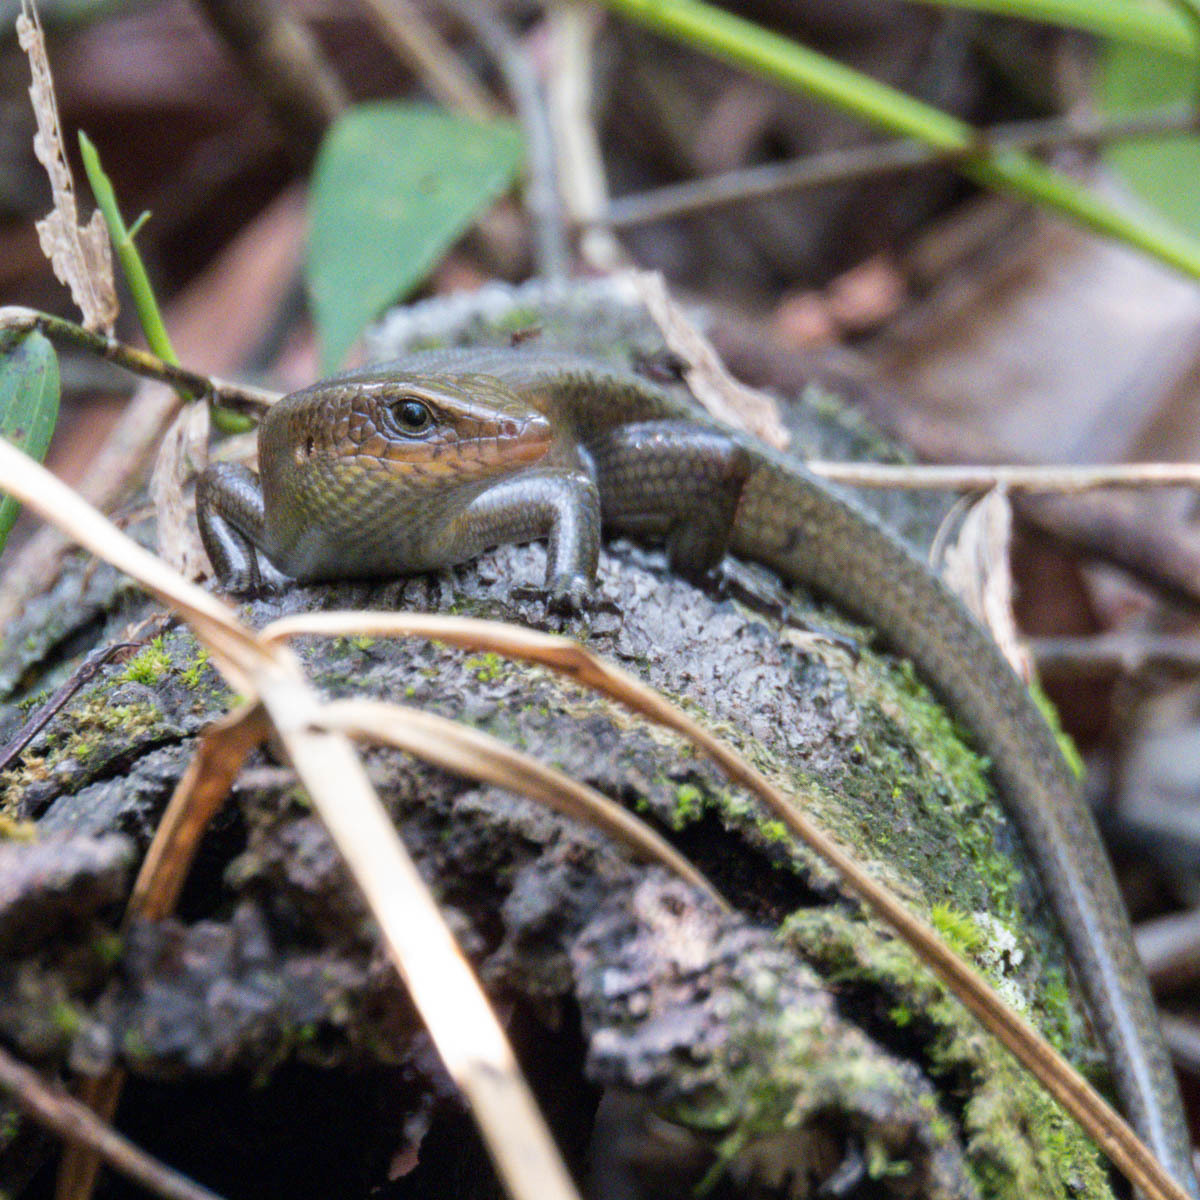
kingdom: Animalia
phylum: Chordata
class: Squamata
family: Scincidae
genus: Eutropis
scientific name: Eutropis multifasciata
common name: Common mabuya
